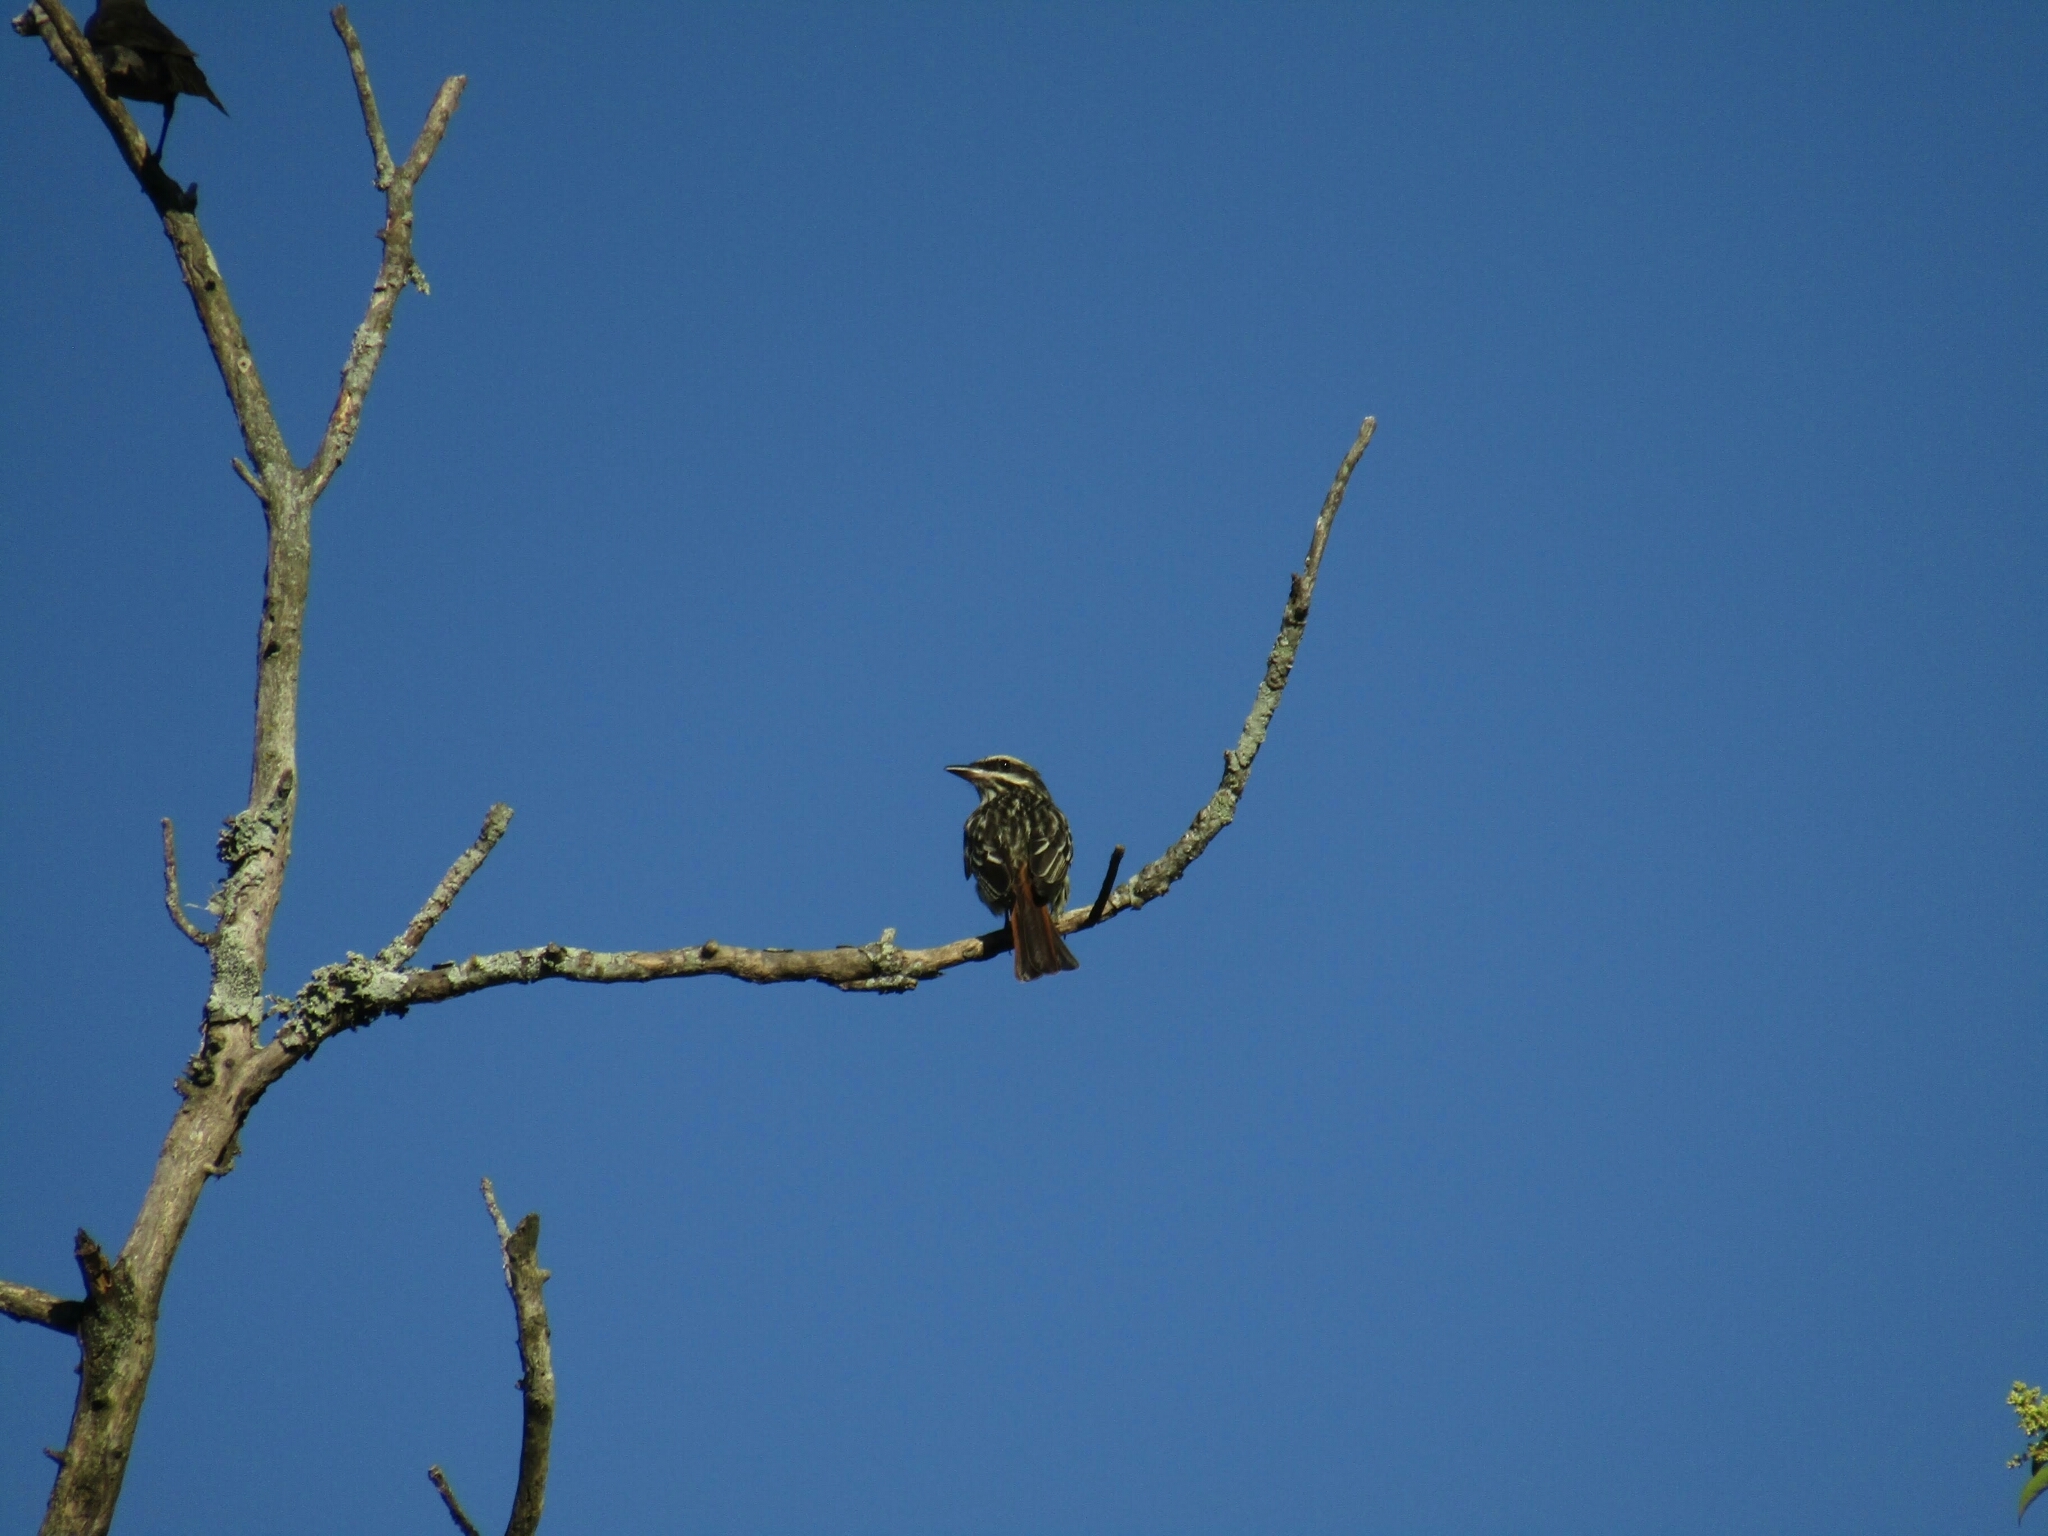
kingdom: Animalia
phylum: Chordata
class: Aves
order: Passeriformes
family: Tyrannidae
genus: Myiodynastes
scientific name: Myiodynastes maculatus
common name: Streaked flycatcher
